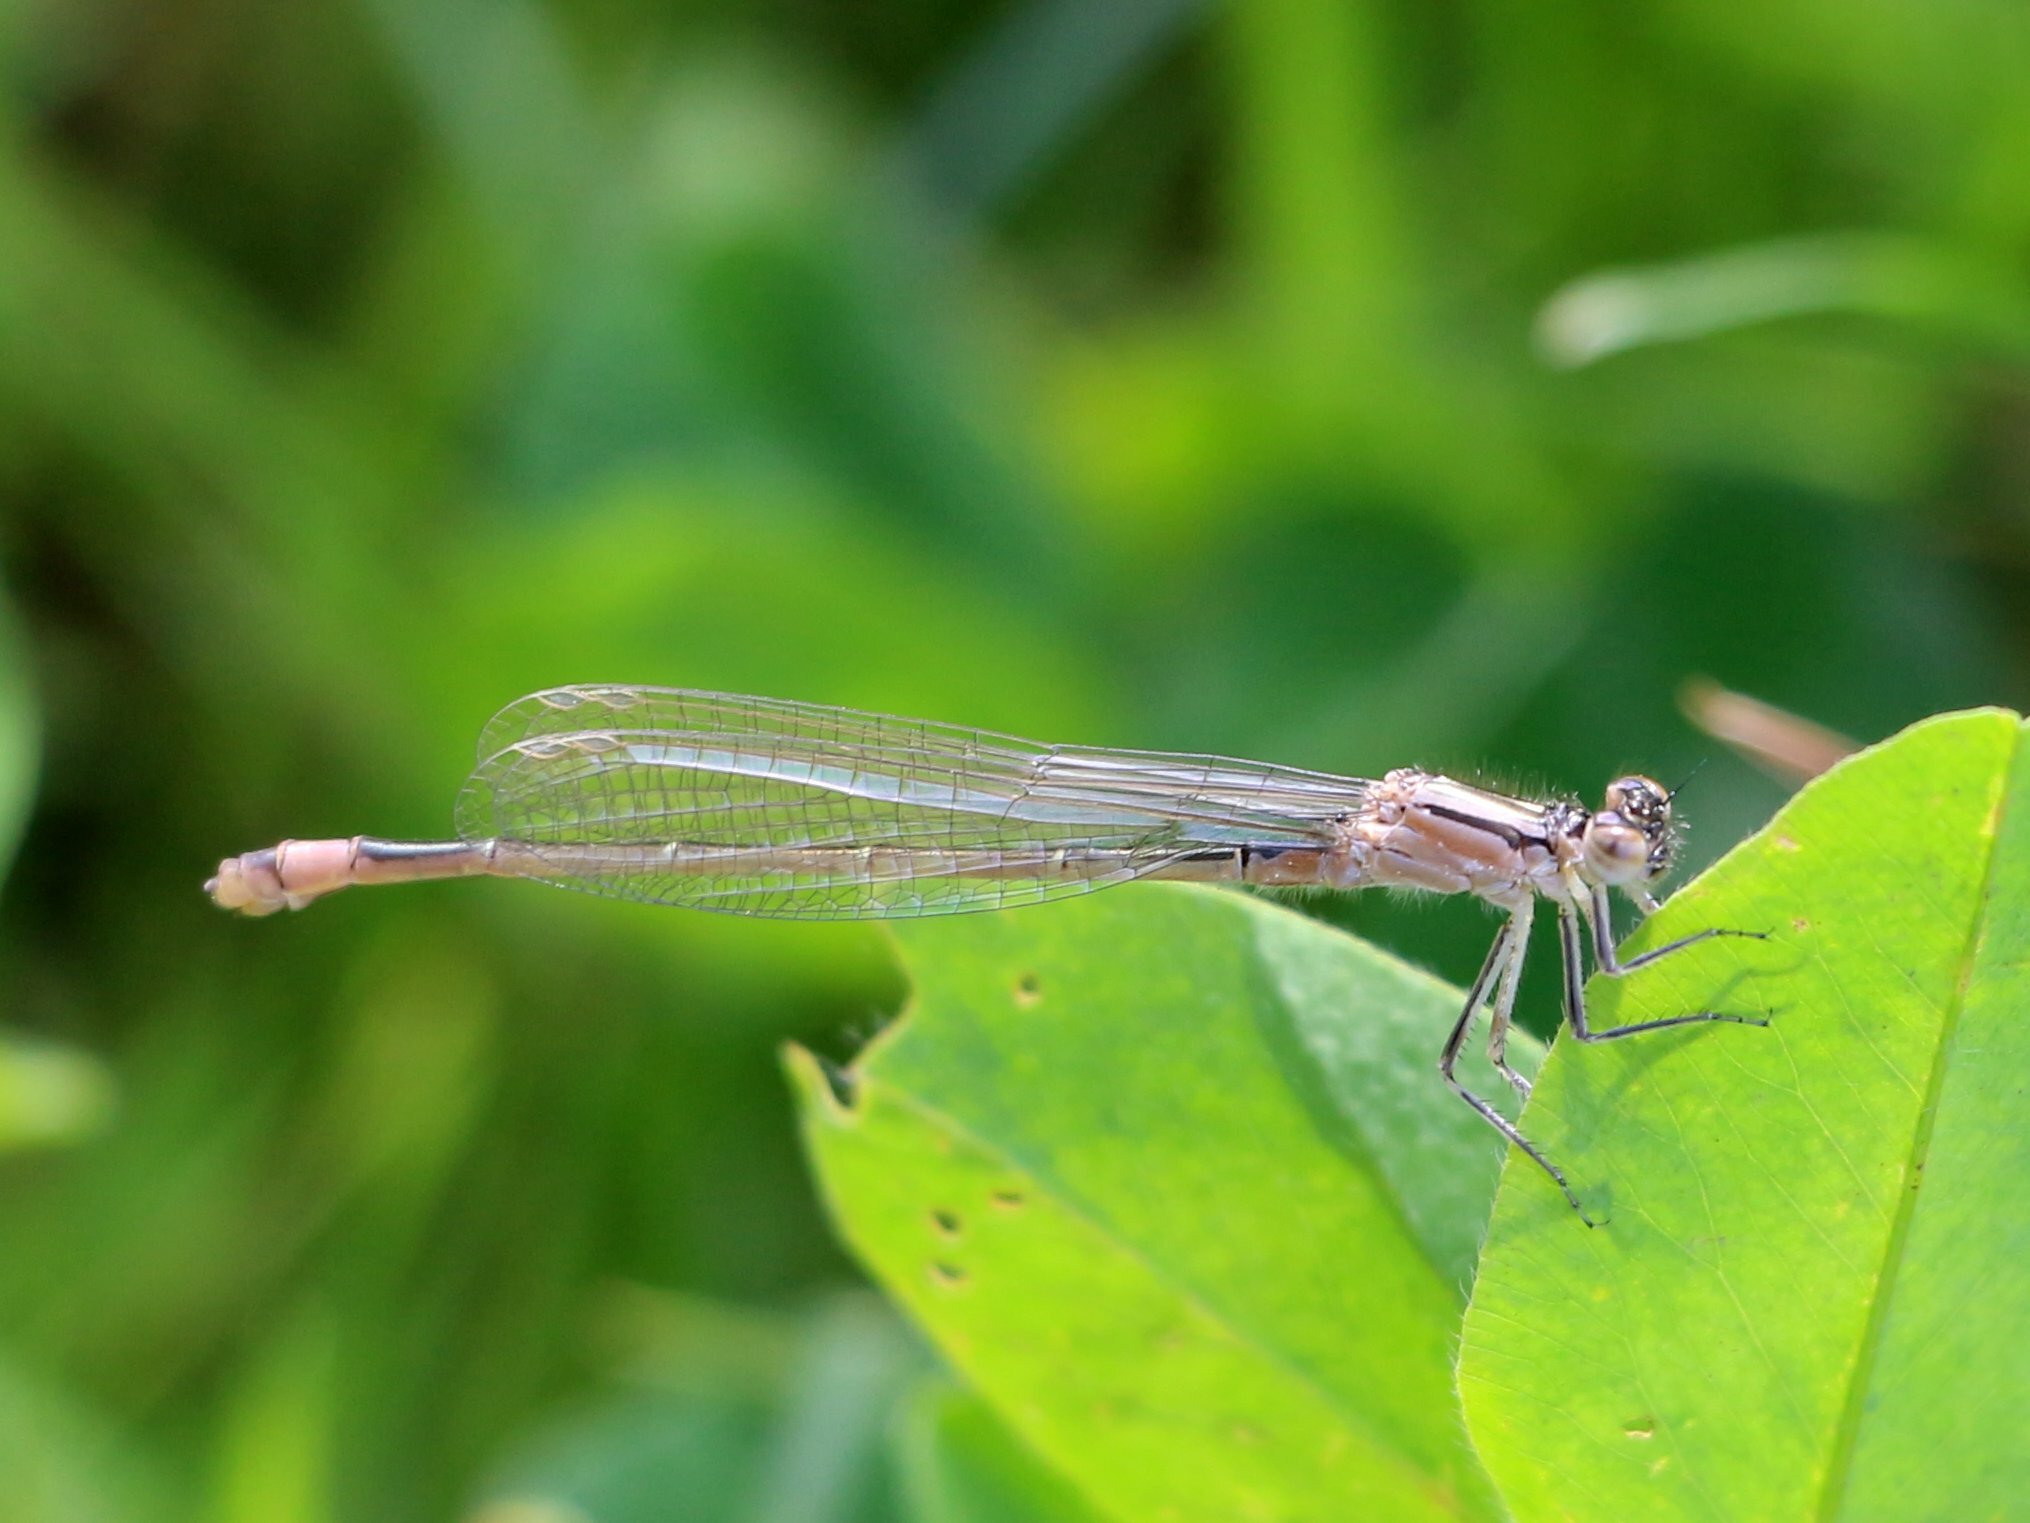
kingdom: Animalia
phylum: Arthropoda
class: Insecta
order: Odonata
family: Coenagrionidae
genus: Ischnura
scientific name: Ischnura elegans
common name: Blue-tailed damselfly
